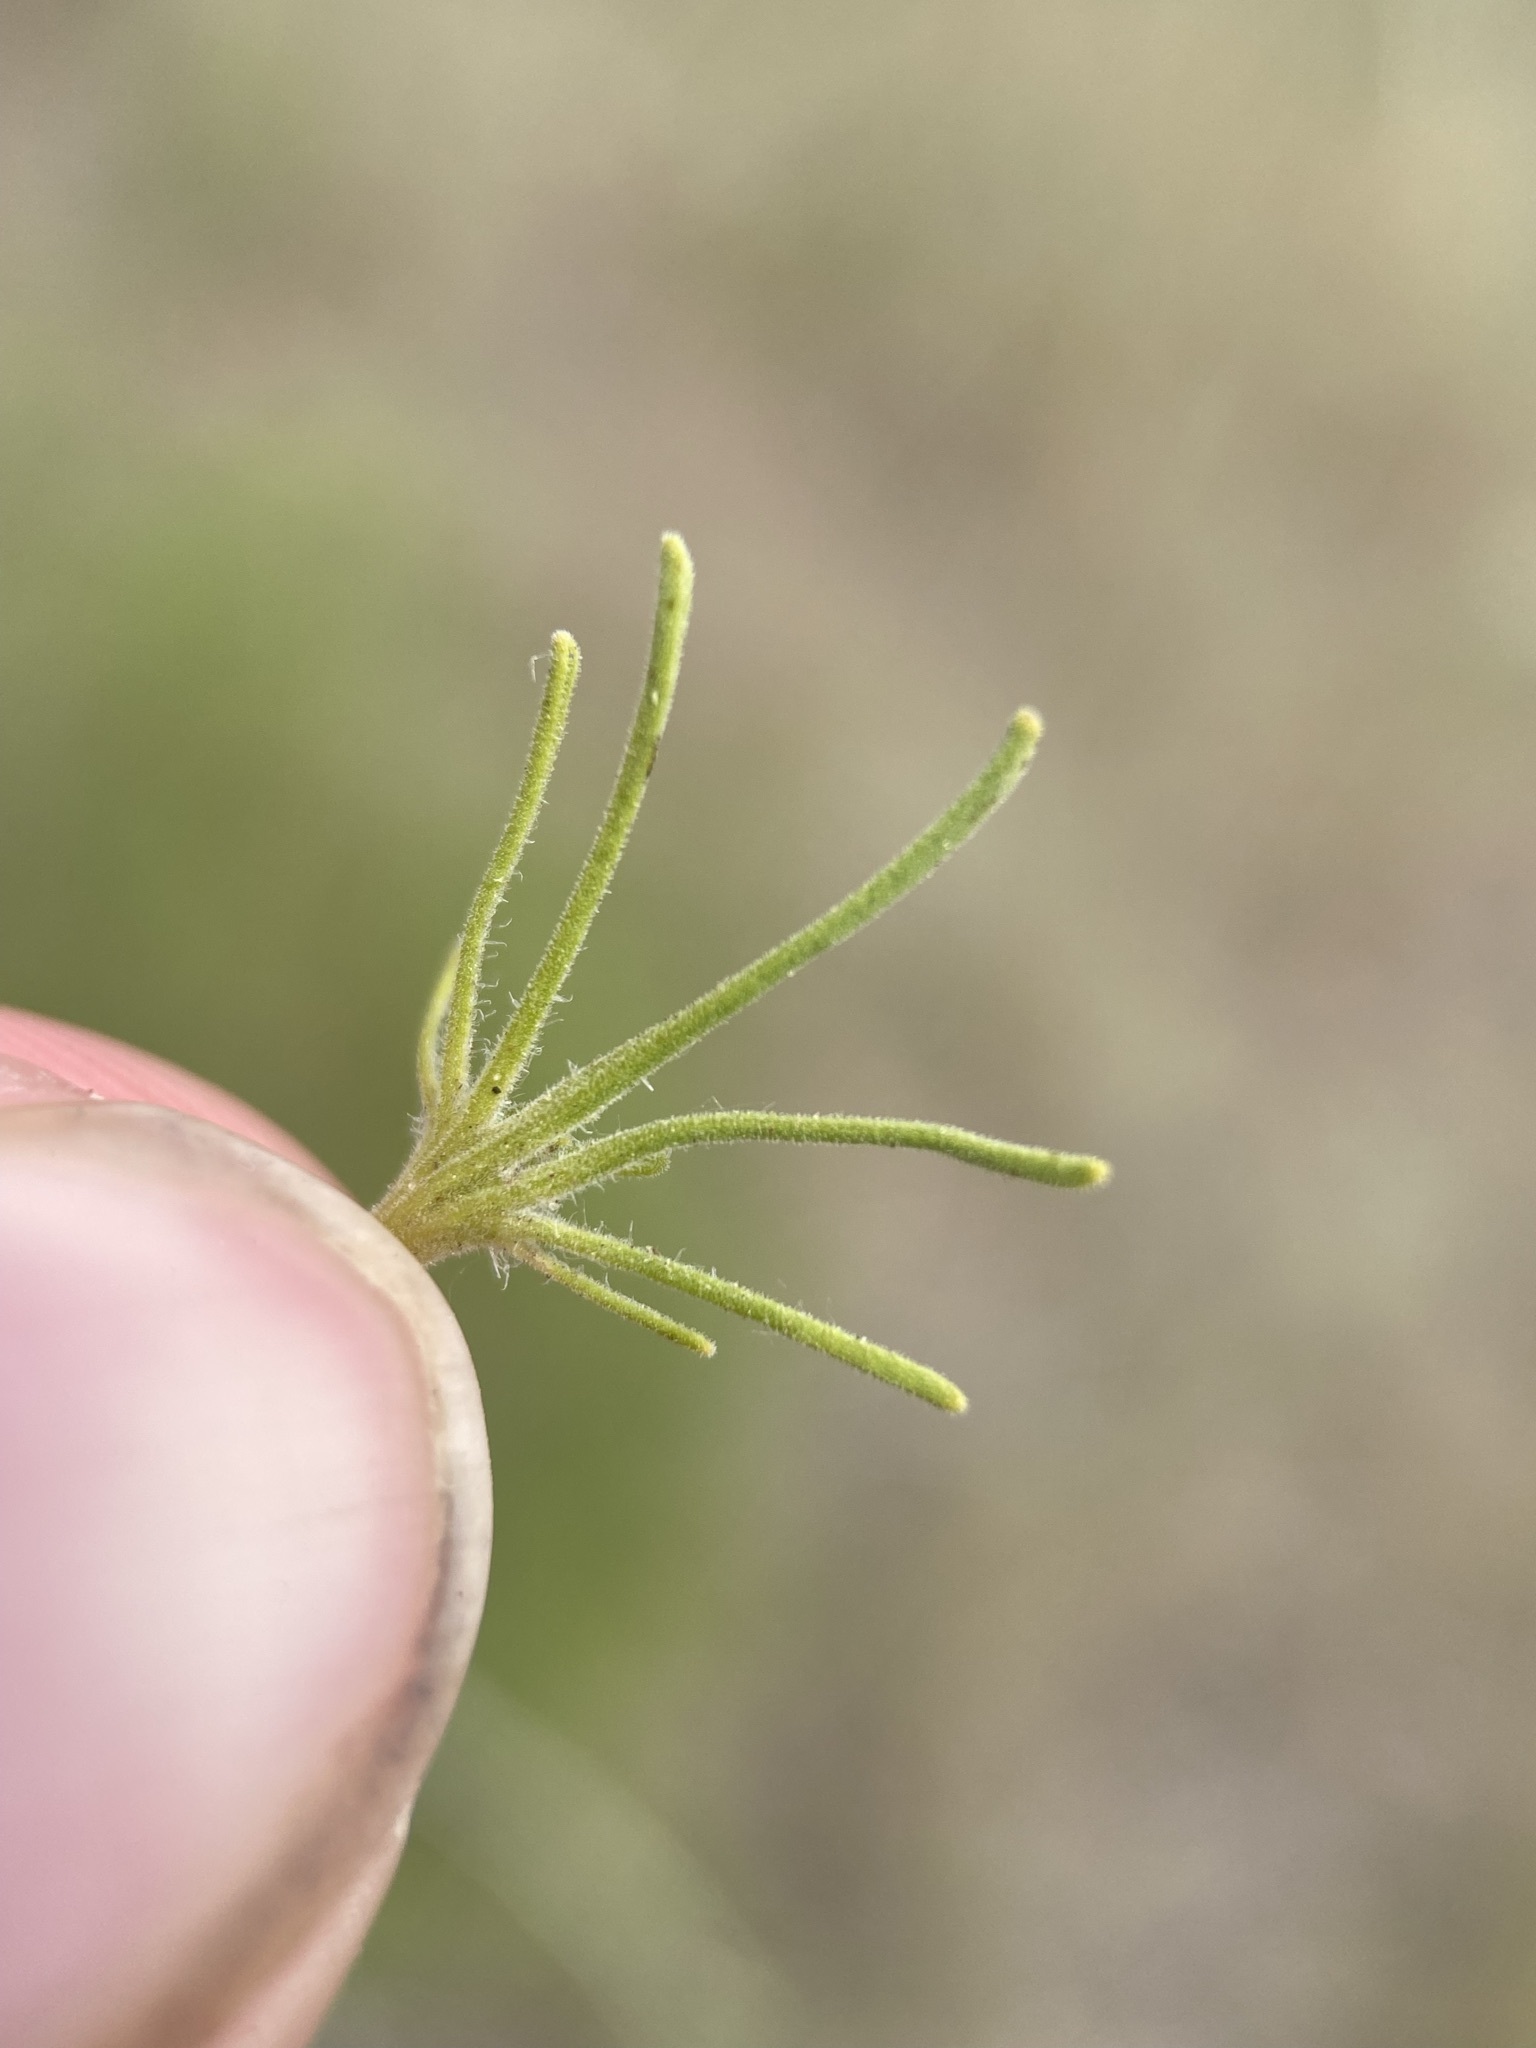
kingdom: Plantae
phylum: Tracheophyta
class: Magnoliopsida
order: Lamiales
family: Orobanchaceae
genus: Cordylanthus
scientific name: Cordylanthus ramosus
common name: Much-branched bird's-beak
